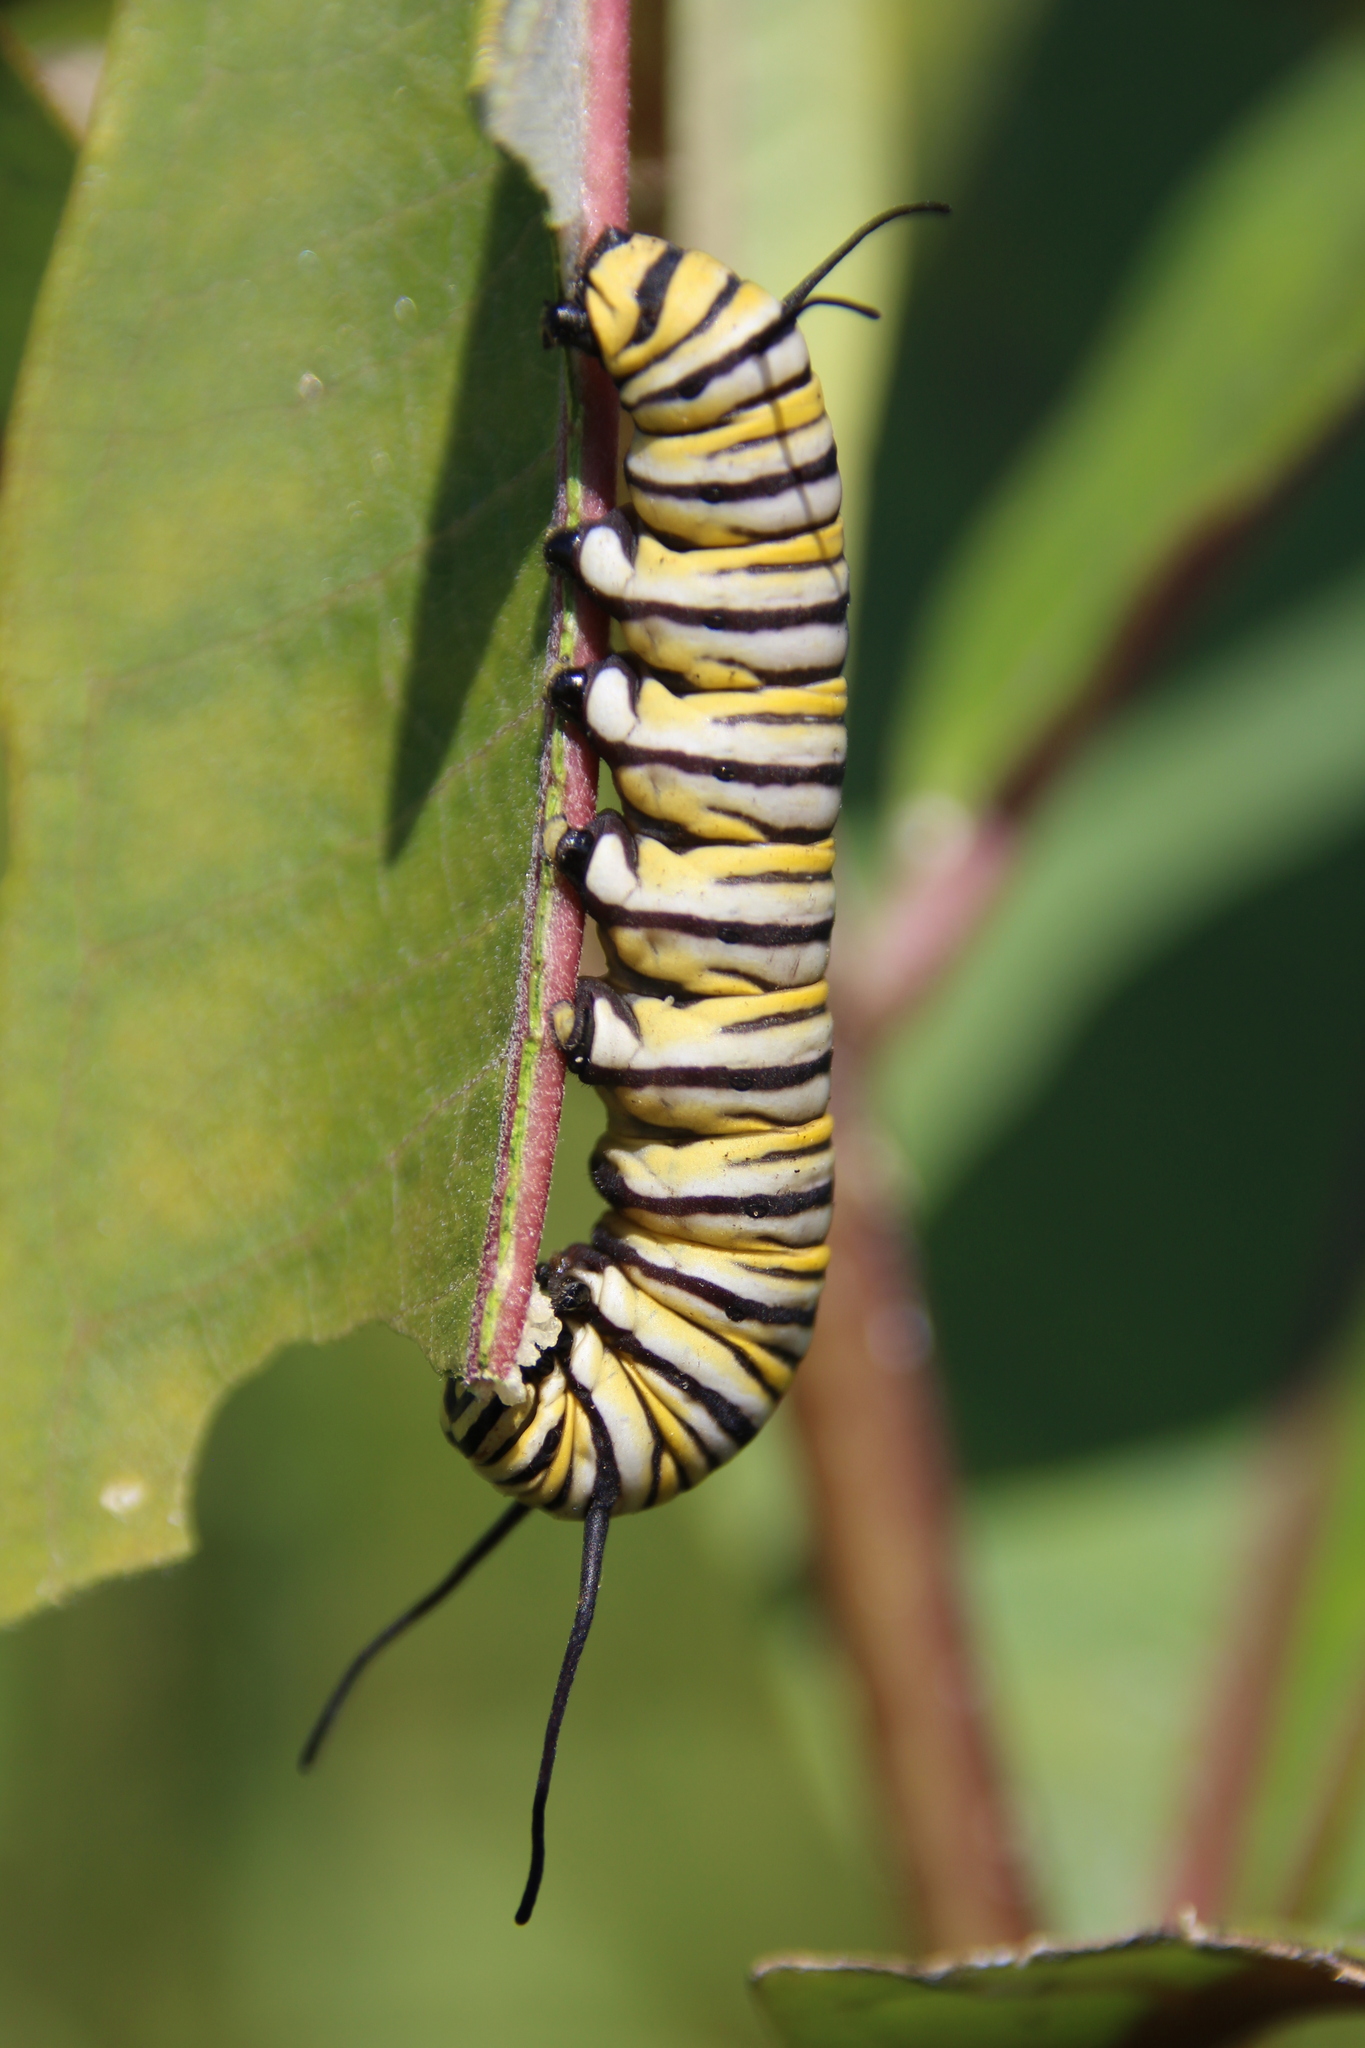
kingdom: Animalia
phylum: Arthropoda
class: Insecta
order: Lepidoptera
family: Nymphalidae
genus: Danaus
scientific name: Danaus plexippus
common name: Monarch
